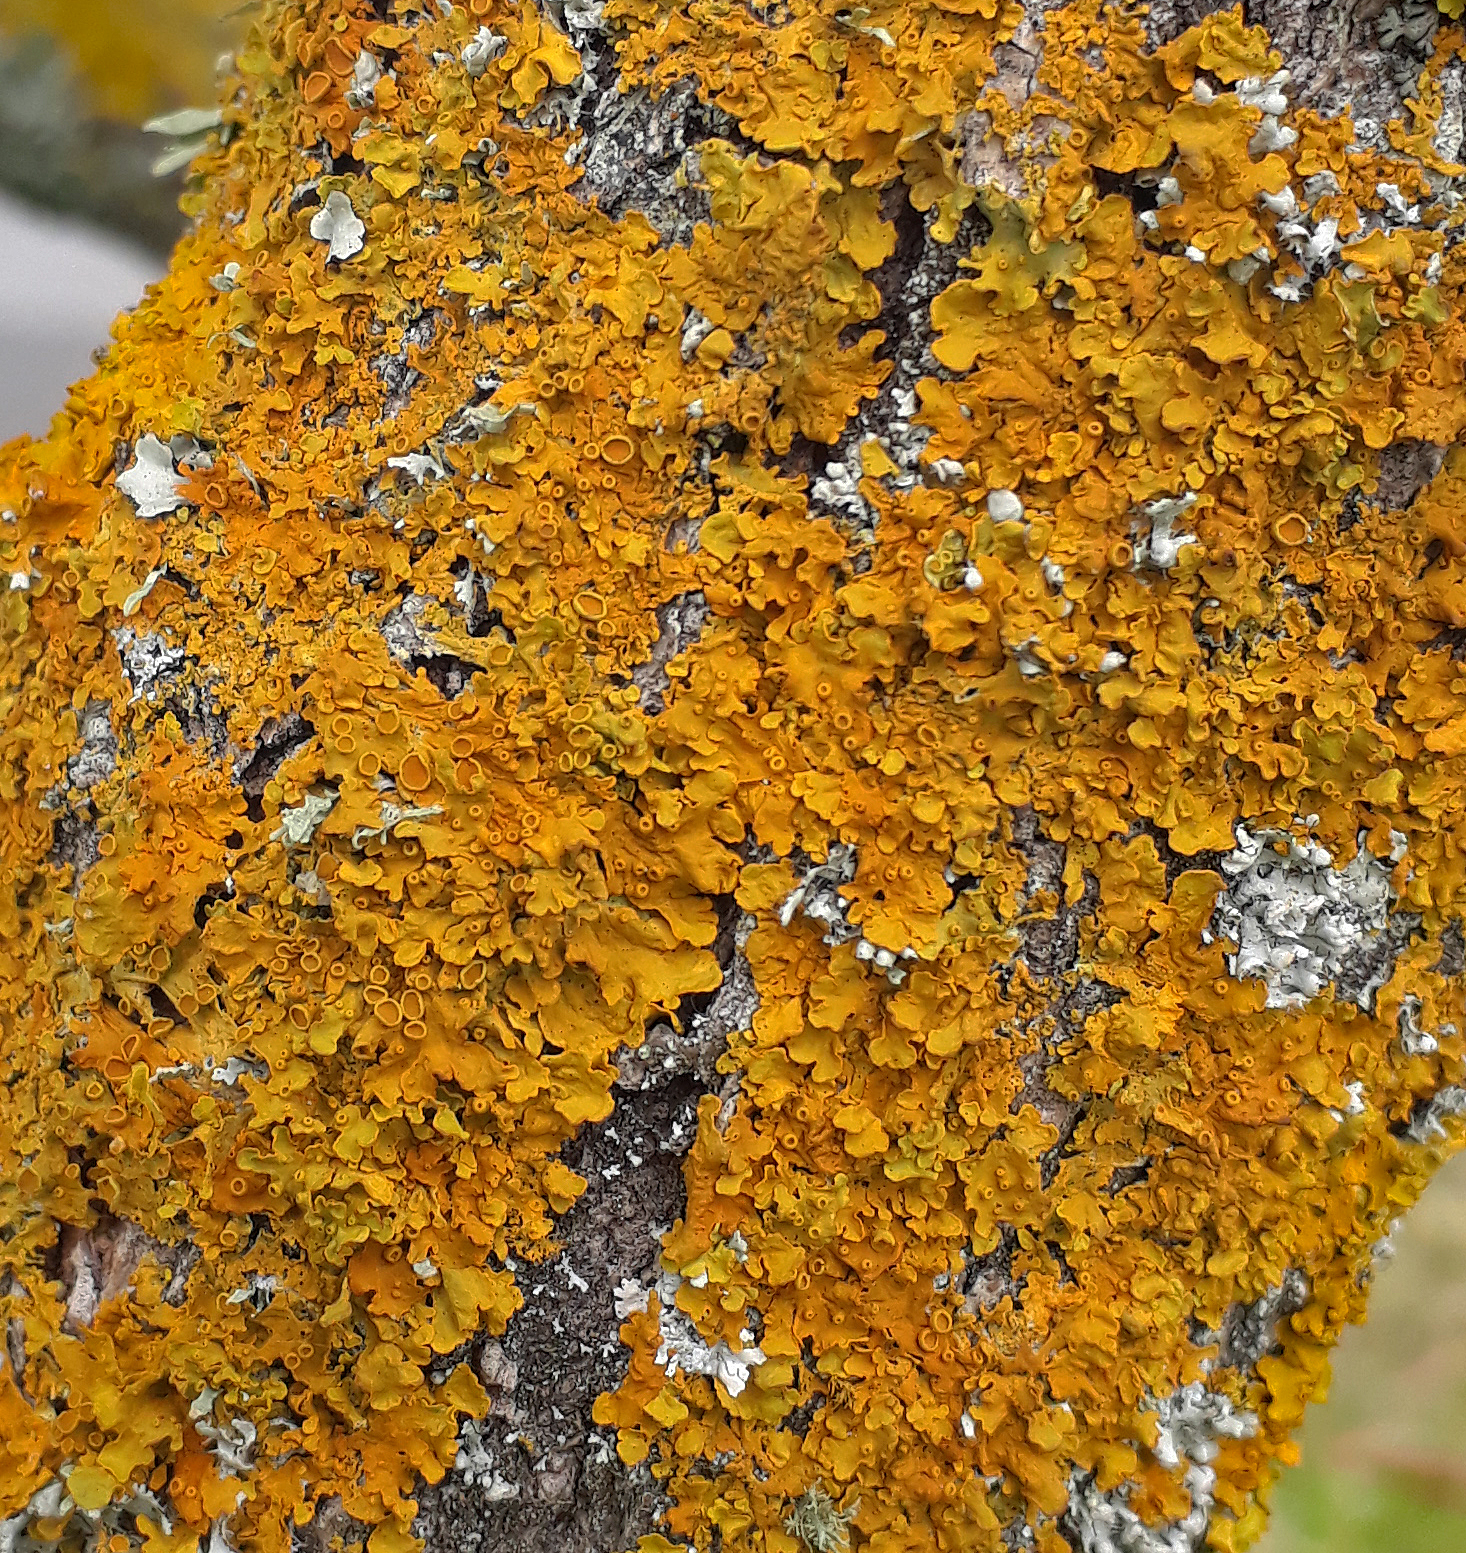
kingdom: Fungi
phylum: Ascomycota
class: Lecanoromycetes
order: Teloschistales
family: Teloschistaceae
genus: Xanthoria
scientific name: Xanthoria parietina
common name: Common orange lichen
